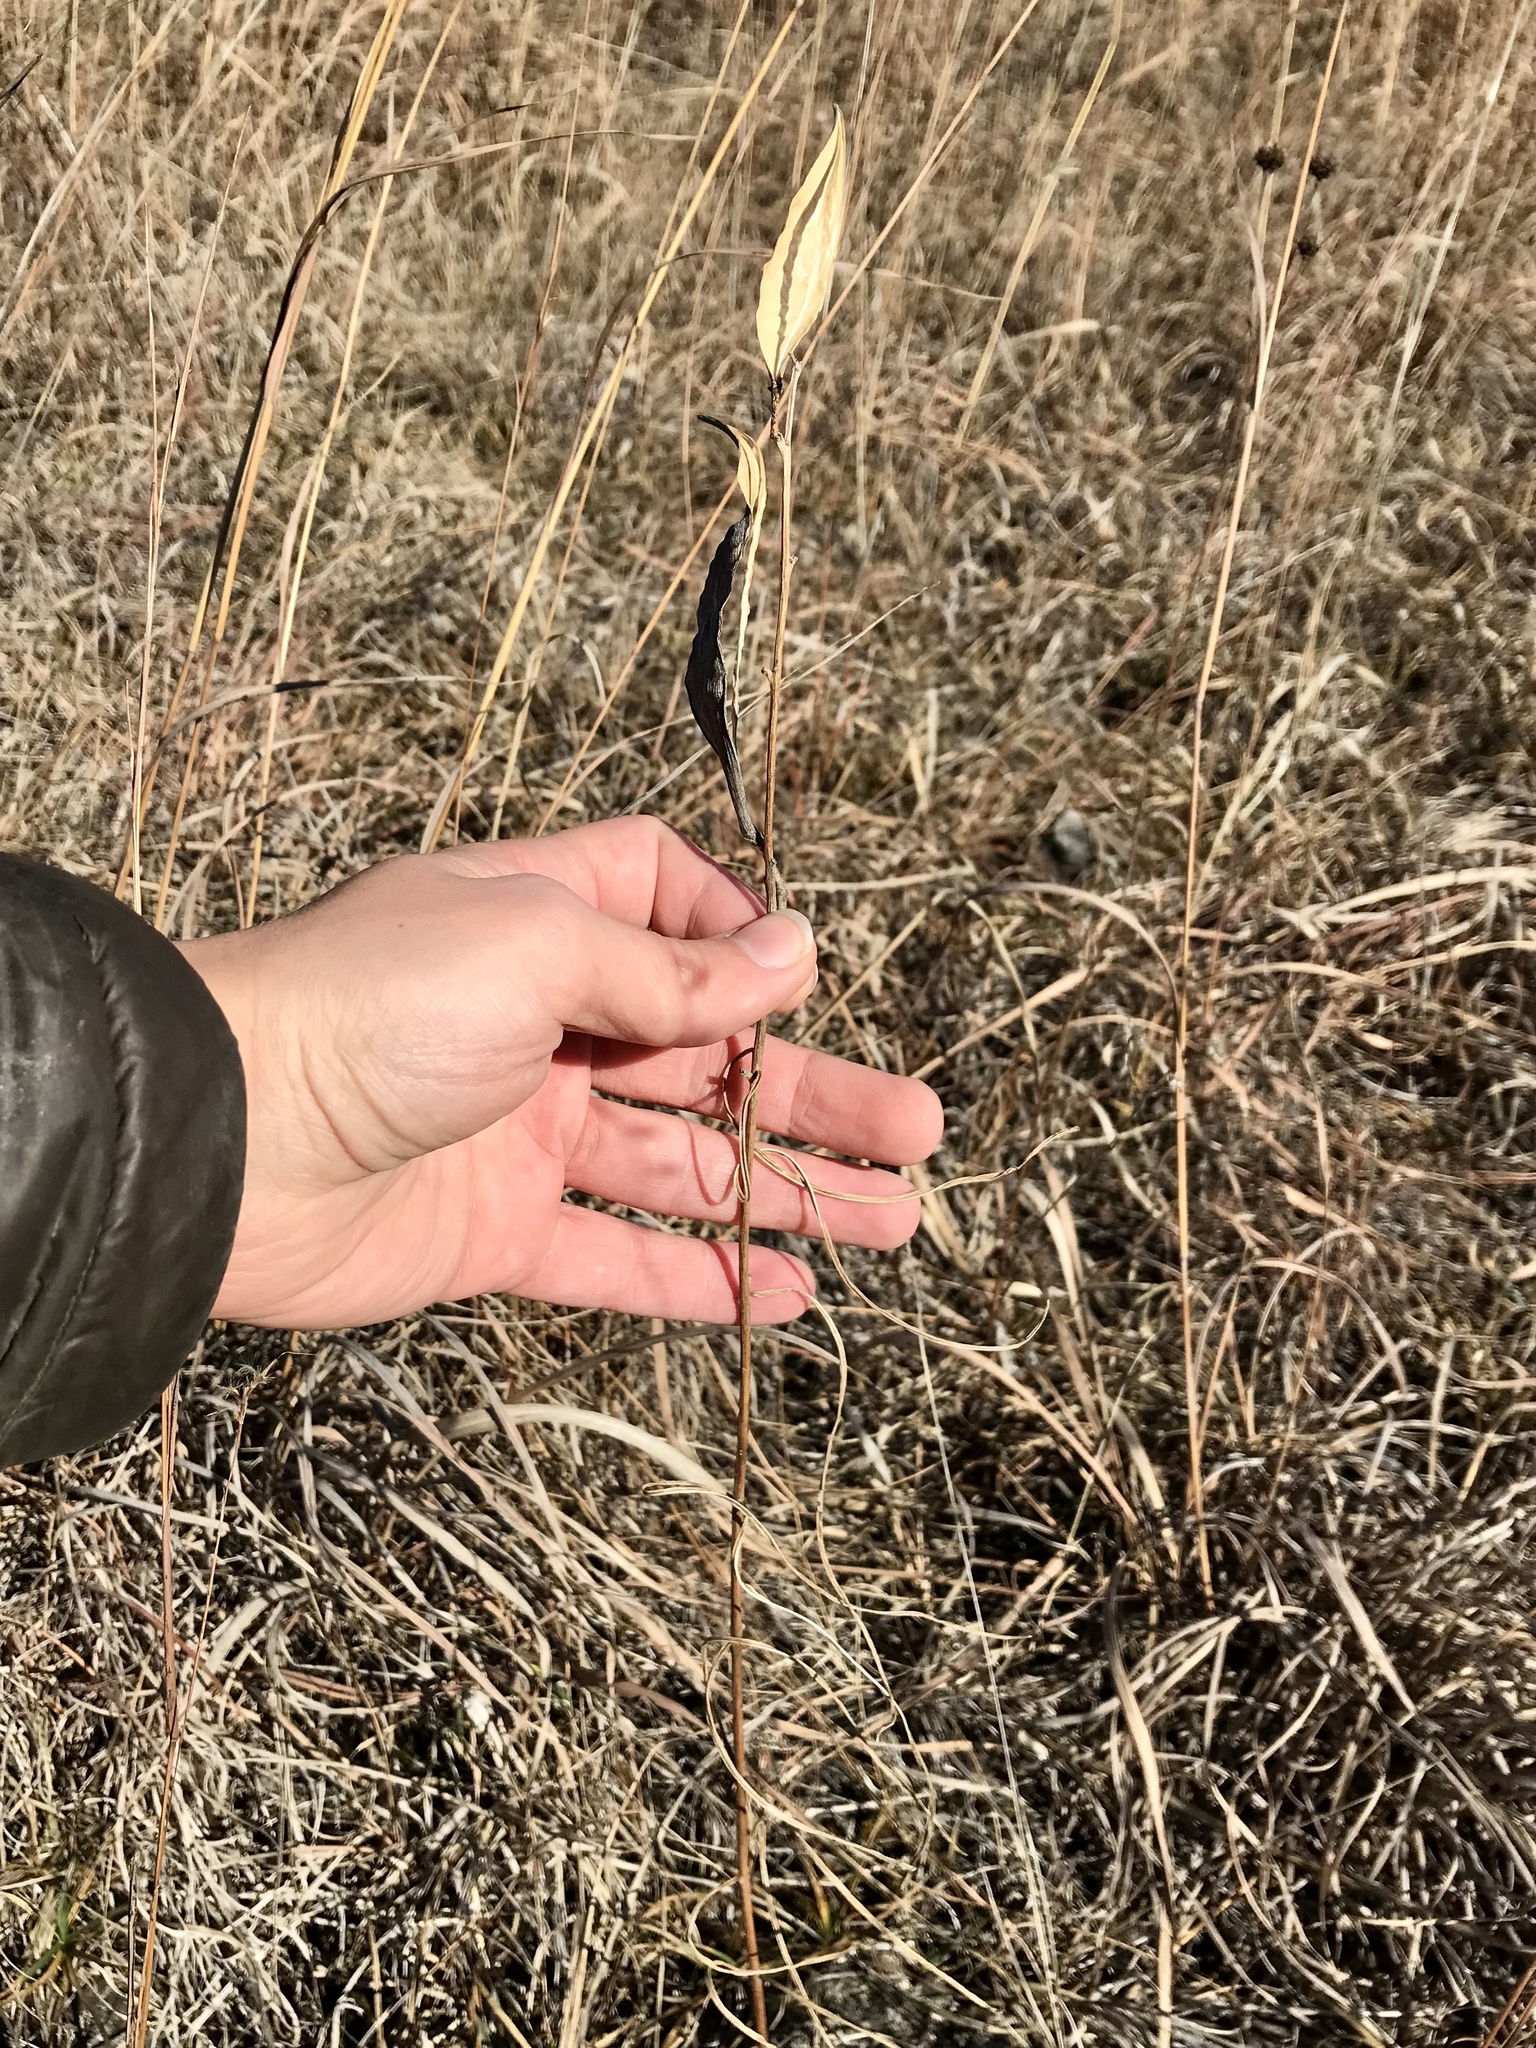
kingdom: Plantae
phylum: Tracheophyta
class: Magnoliopsida
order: Gentianales
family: Apocynaceae
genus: Asclepias
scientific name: Asclepias stenophylla
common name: Narrow-leaf milkweed
